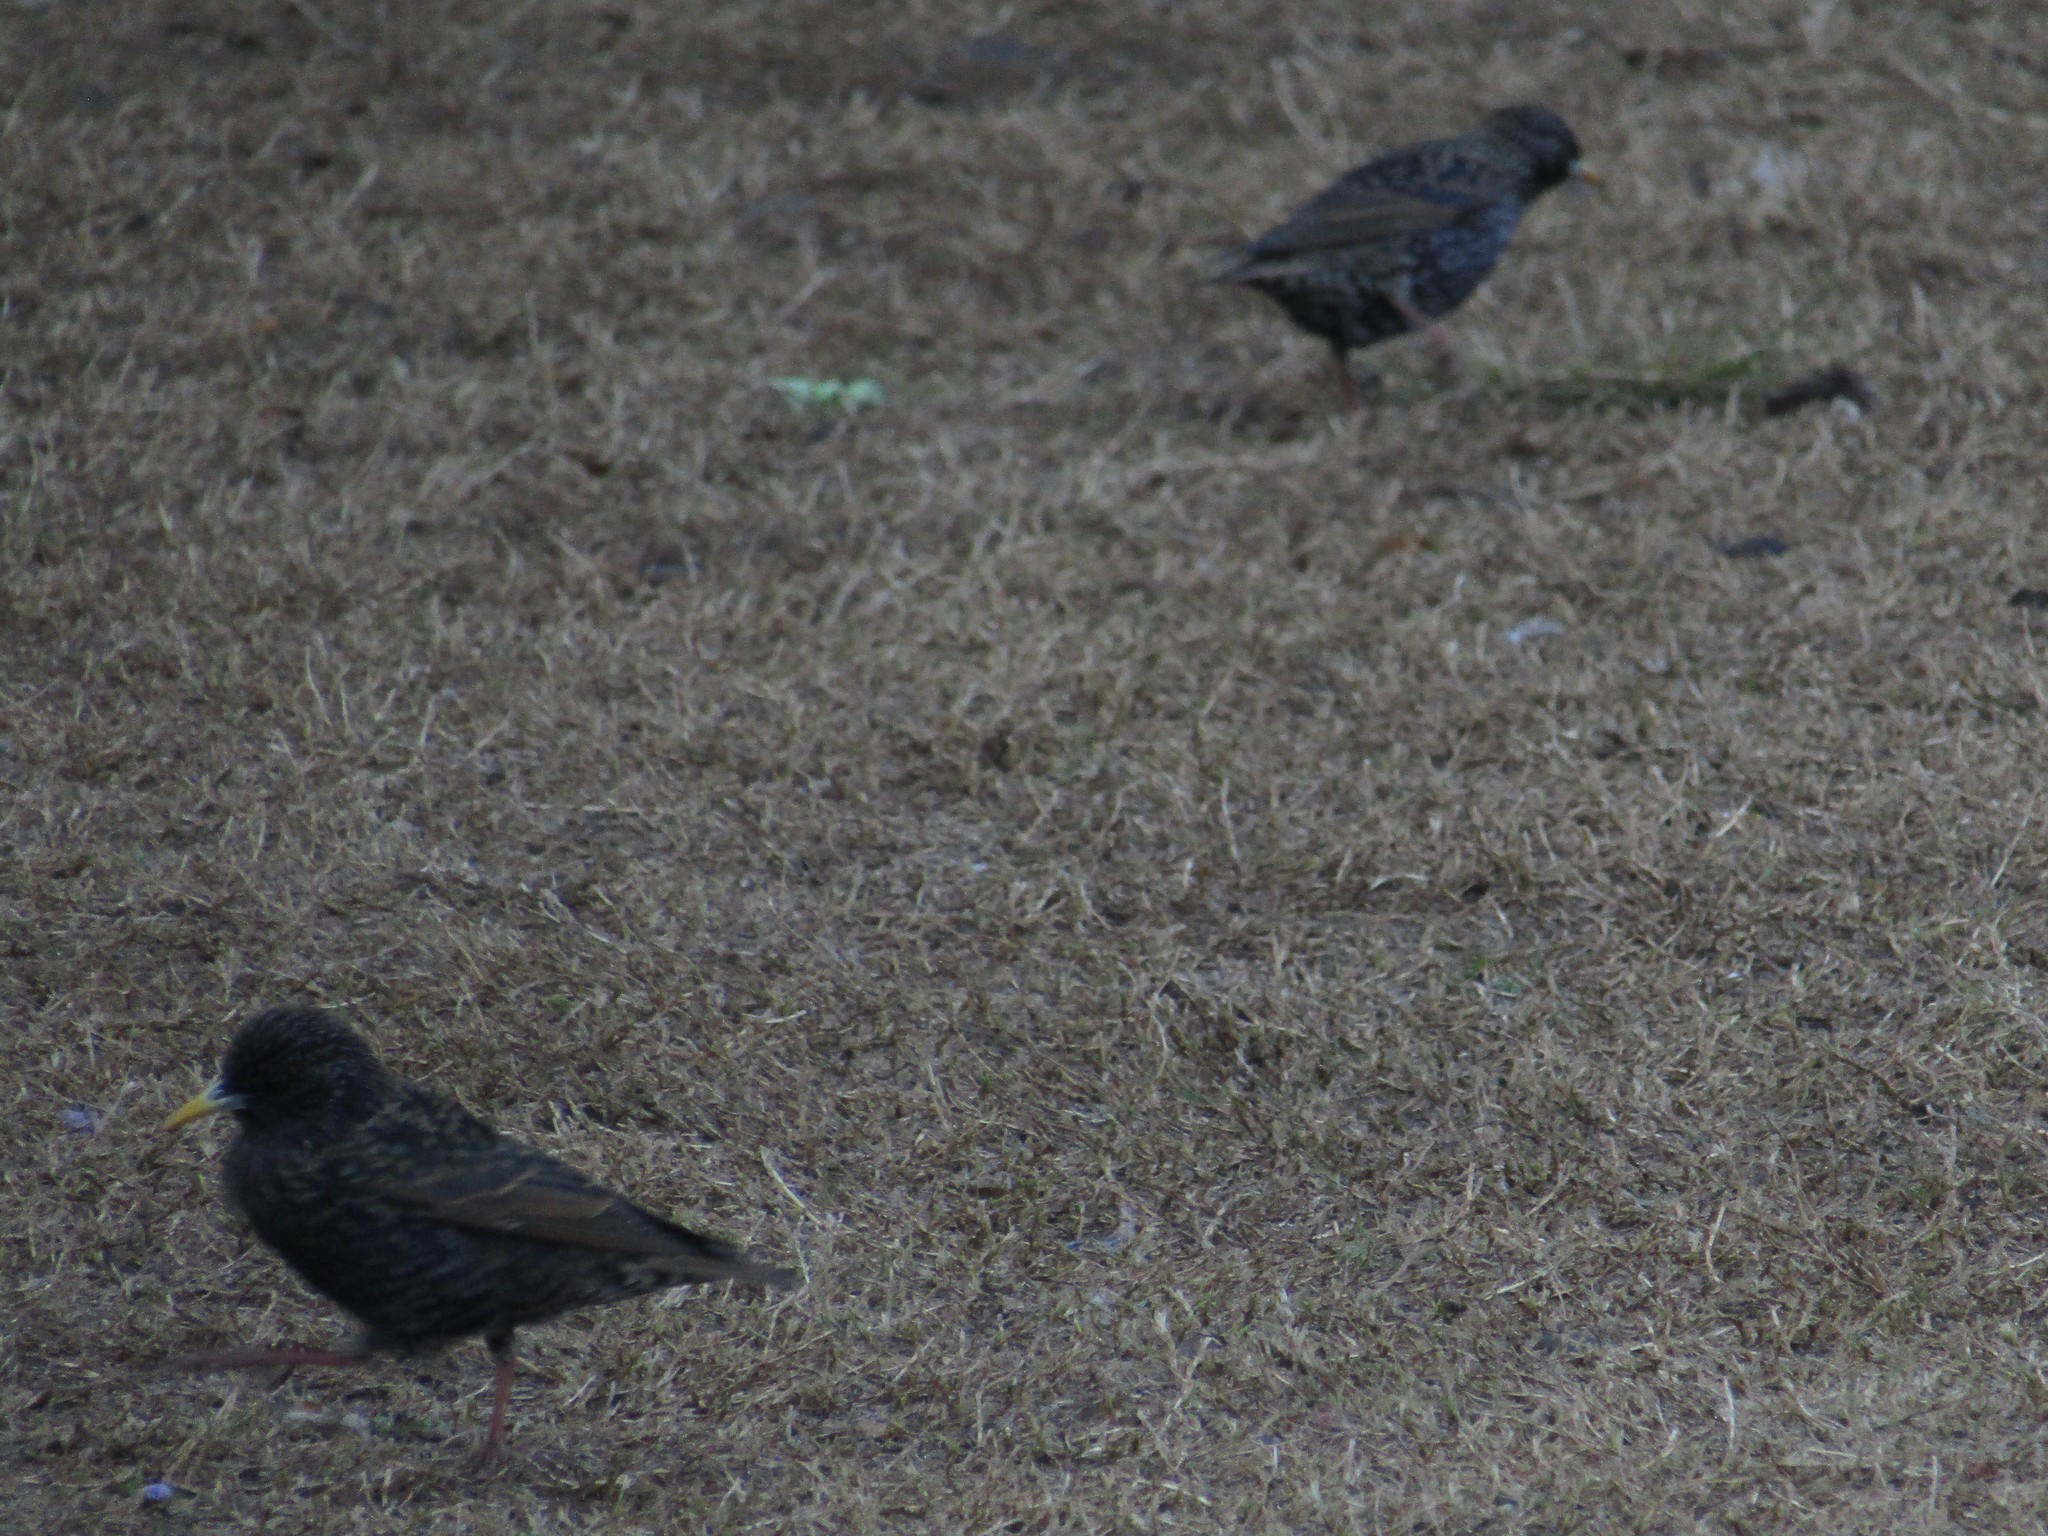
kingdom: Animalia
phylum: Chordata
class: Aves
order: Passeriformes
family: Sturnidae
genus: Sturnus
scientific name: Sturnus vulgaris
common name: Common starling
